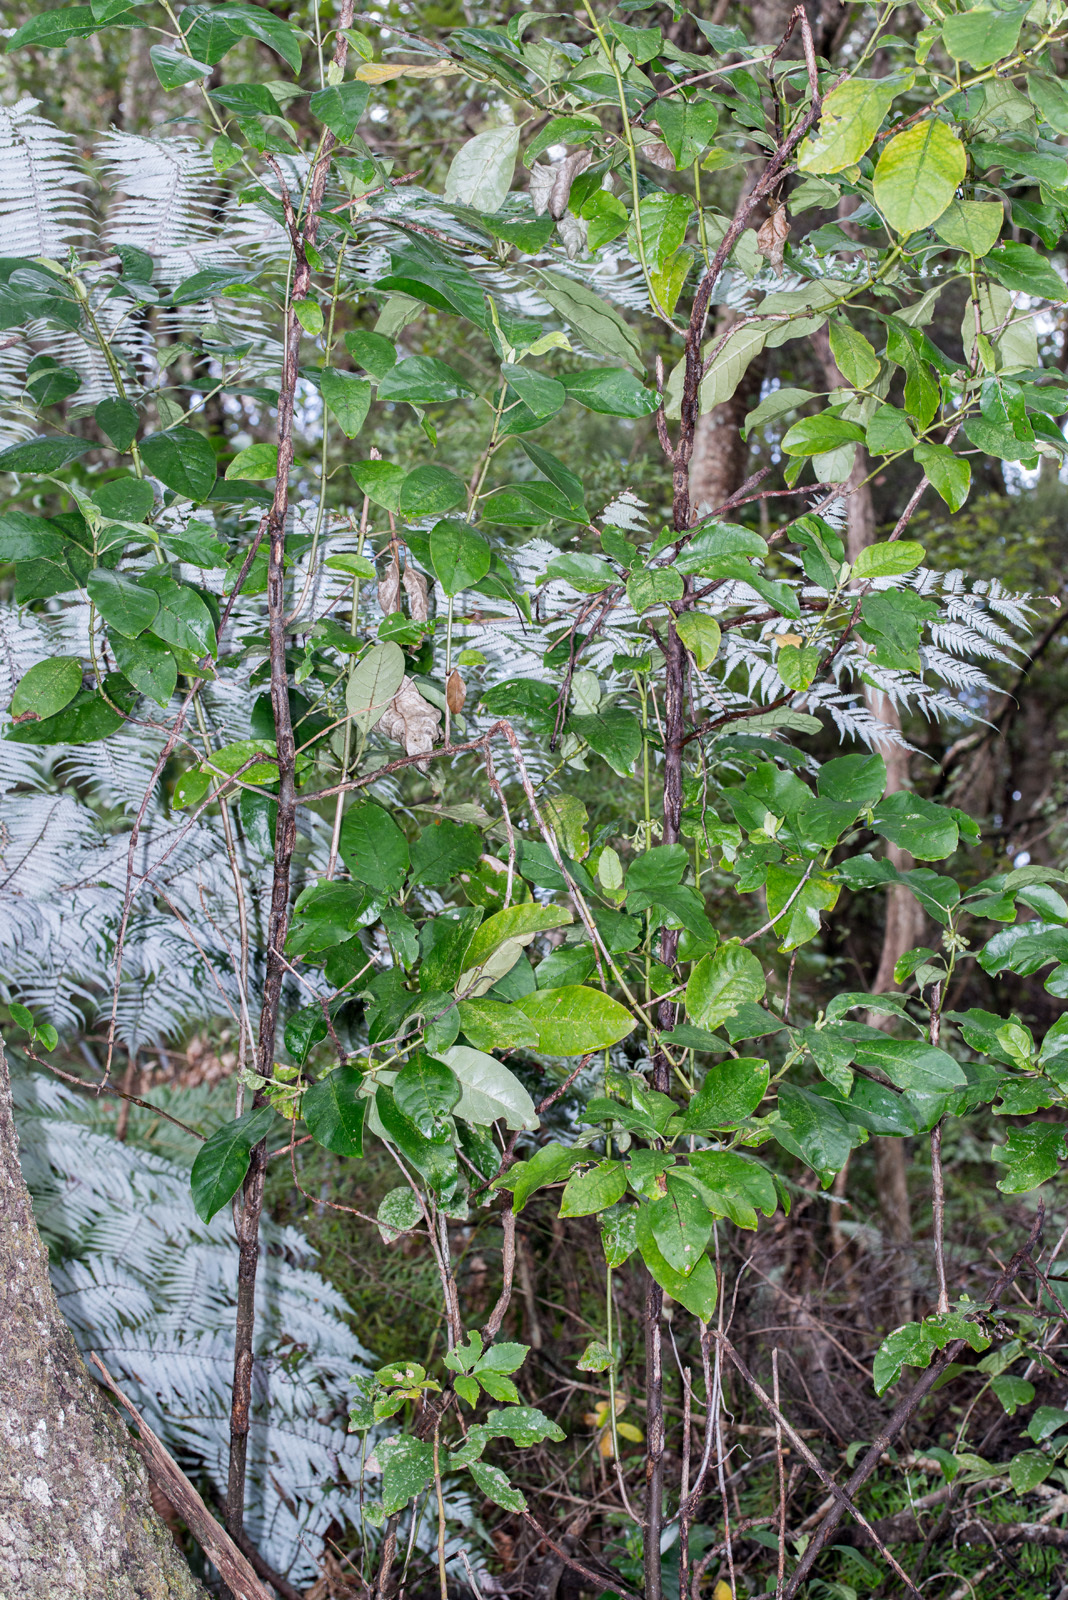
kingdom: Plantae
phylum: Tracheophyta
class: Magnoliopsida
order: Gentianales
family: Rubiaceae
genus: Coprosma
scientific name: Coprosma autumnalis
